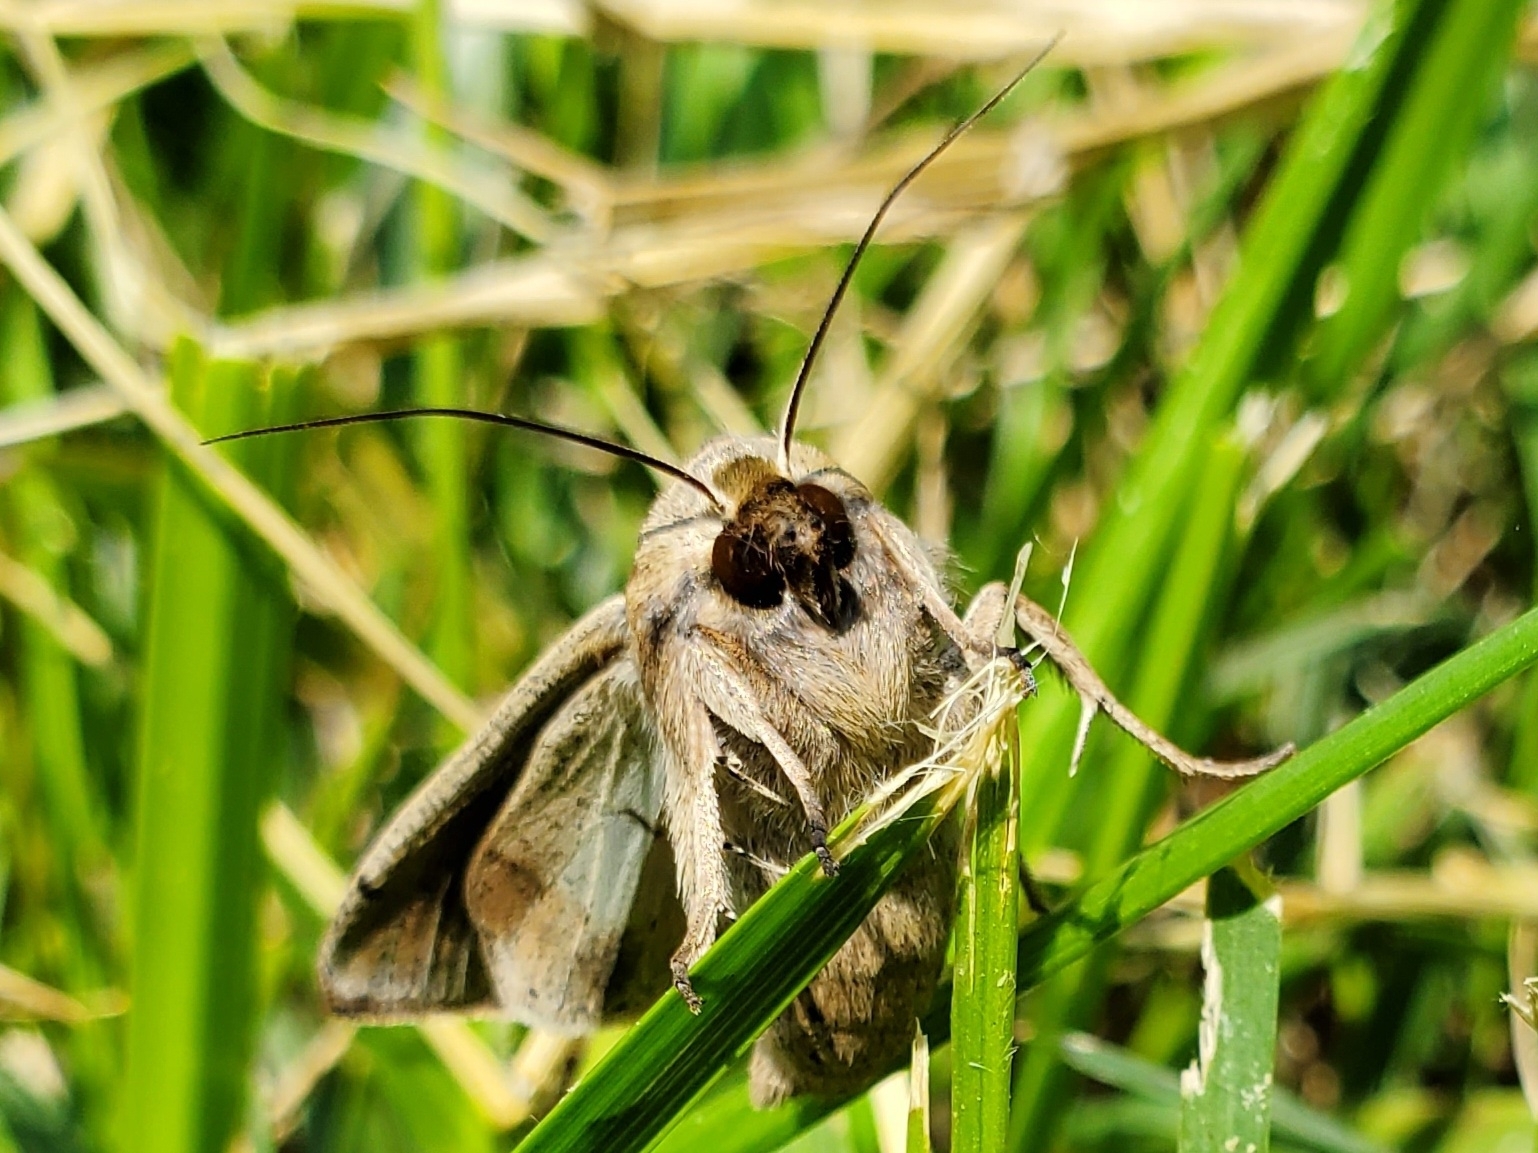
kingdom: Animalia
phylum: Arthropoda
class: Insecta
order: Lepidoptera
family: Noctuidae
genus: Mythimna
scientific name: Mythimna unipuncta
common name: White-speck
